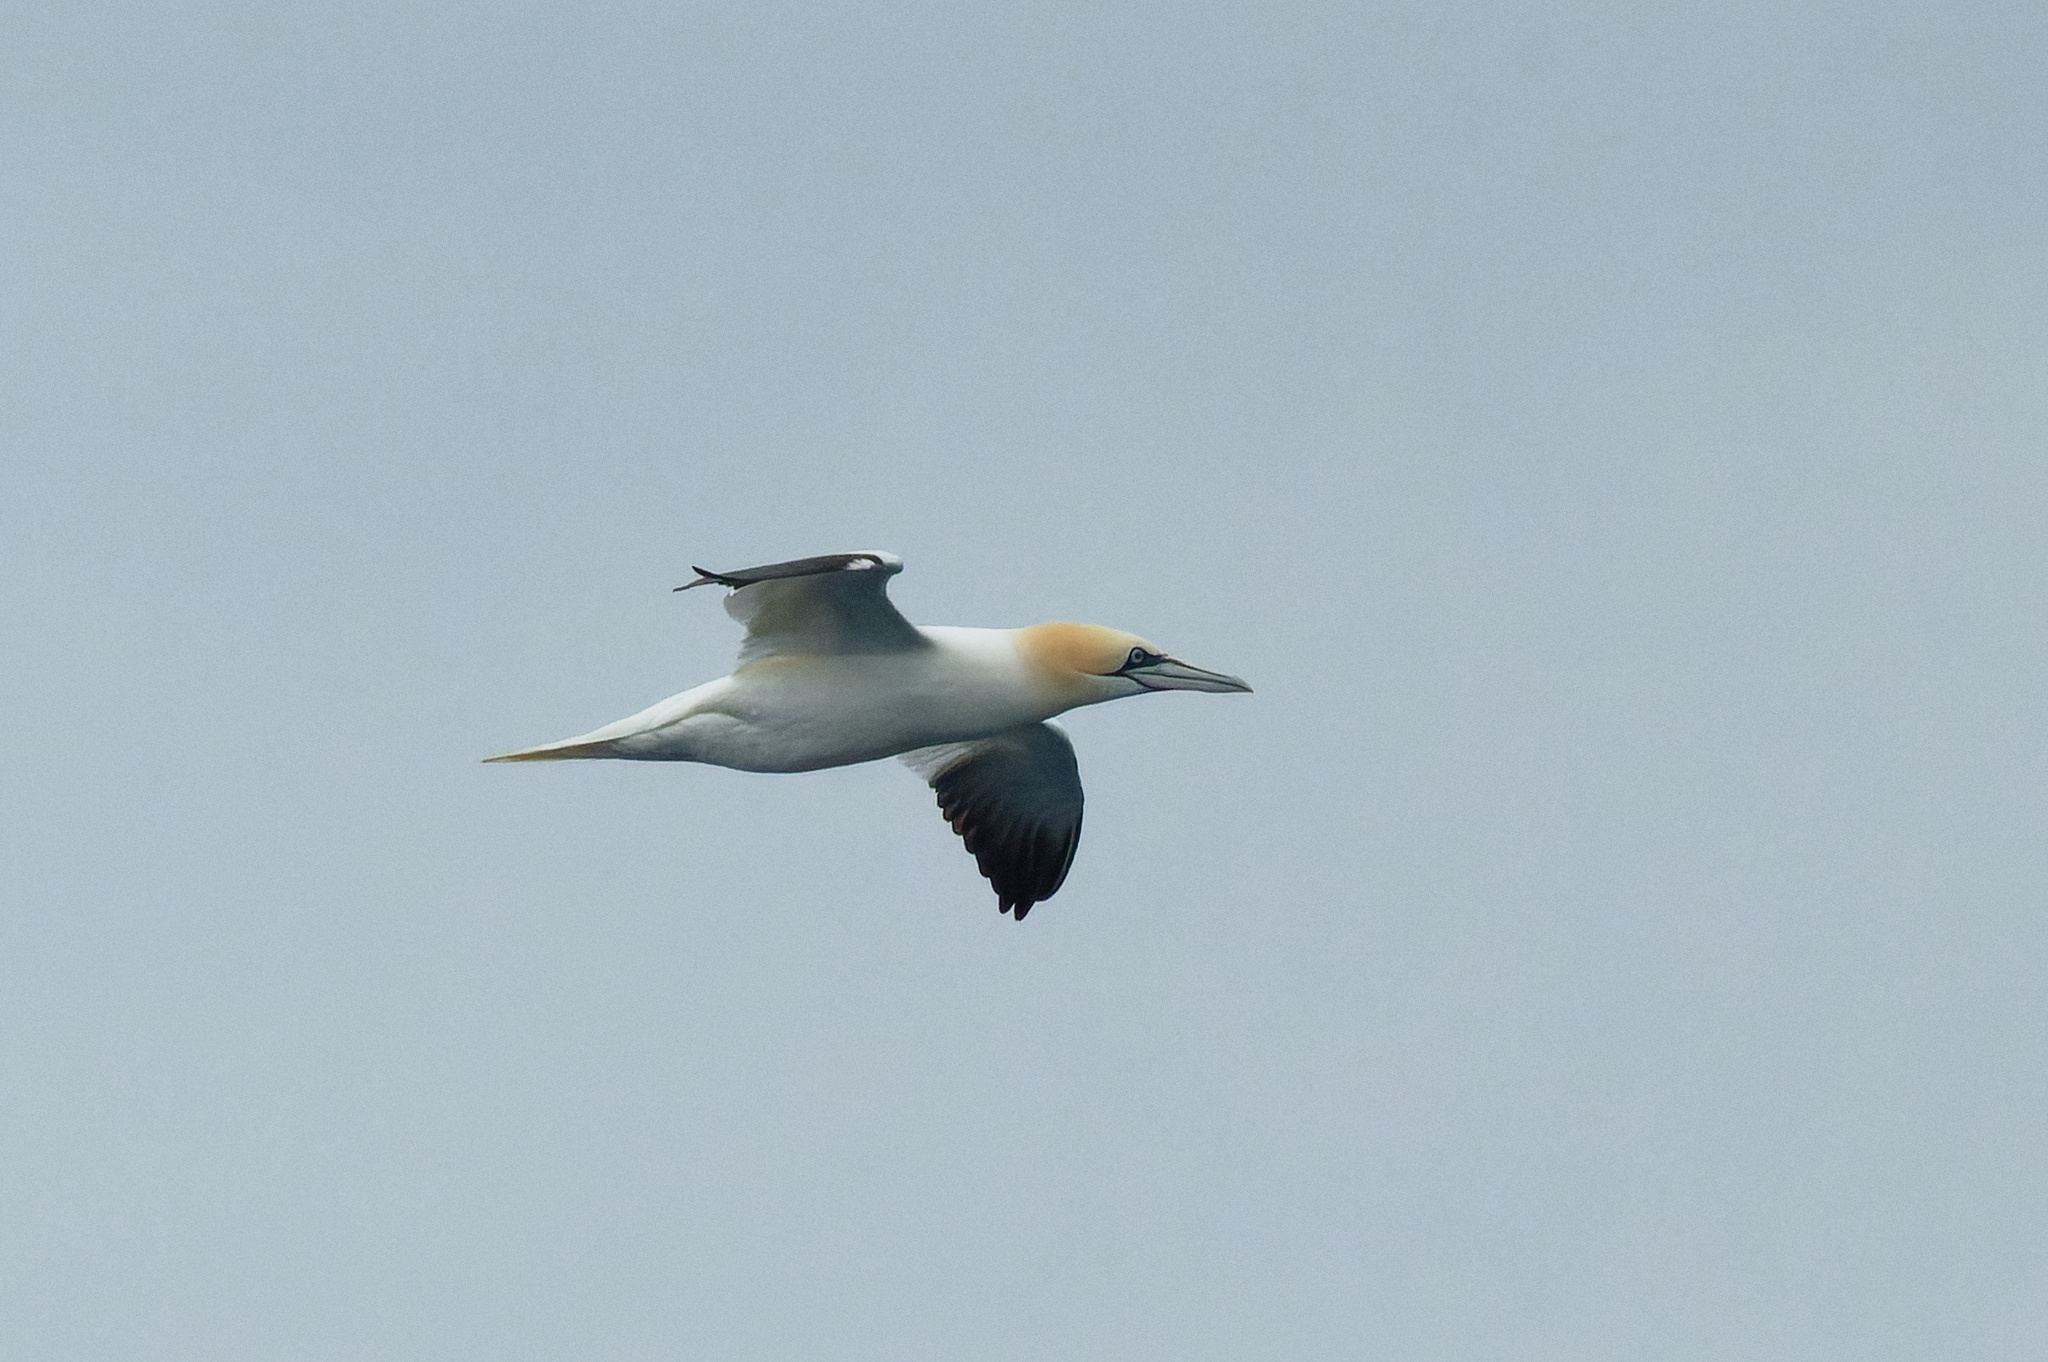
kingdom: Animalia
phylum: Chordata
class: Aves
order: Suliformes
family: Sulidae
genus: Morus
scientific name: Morus bassanus
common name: Northern gannet
